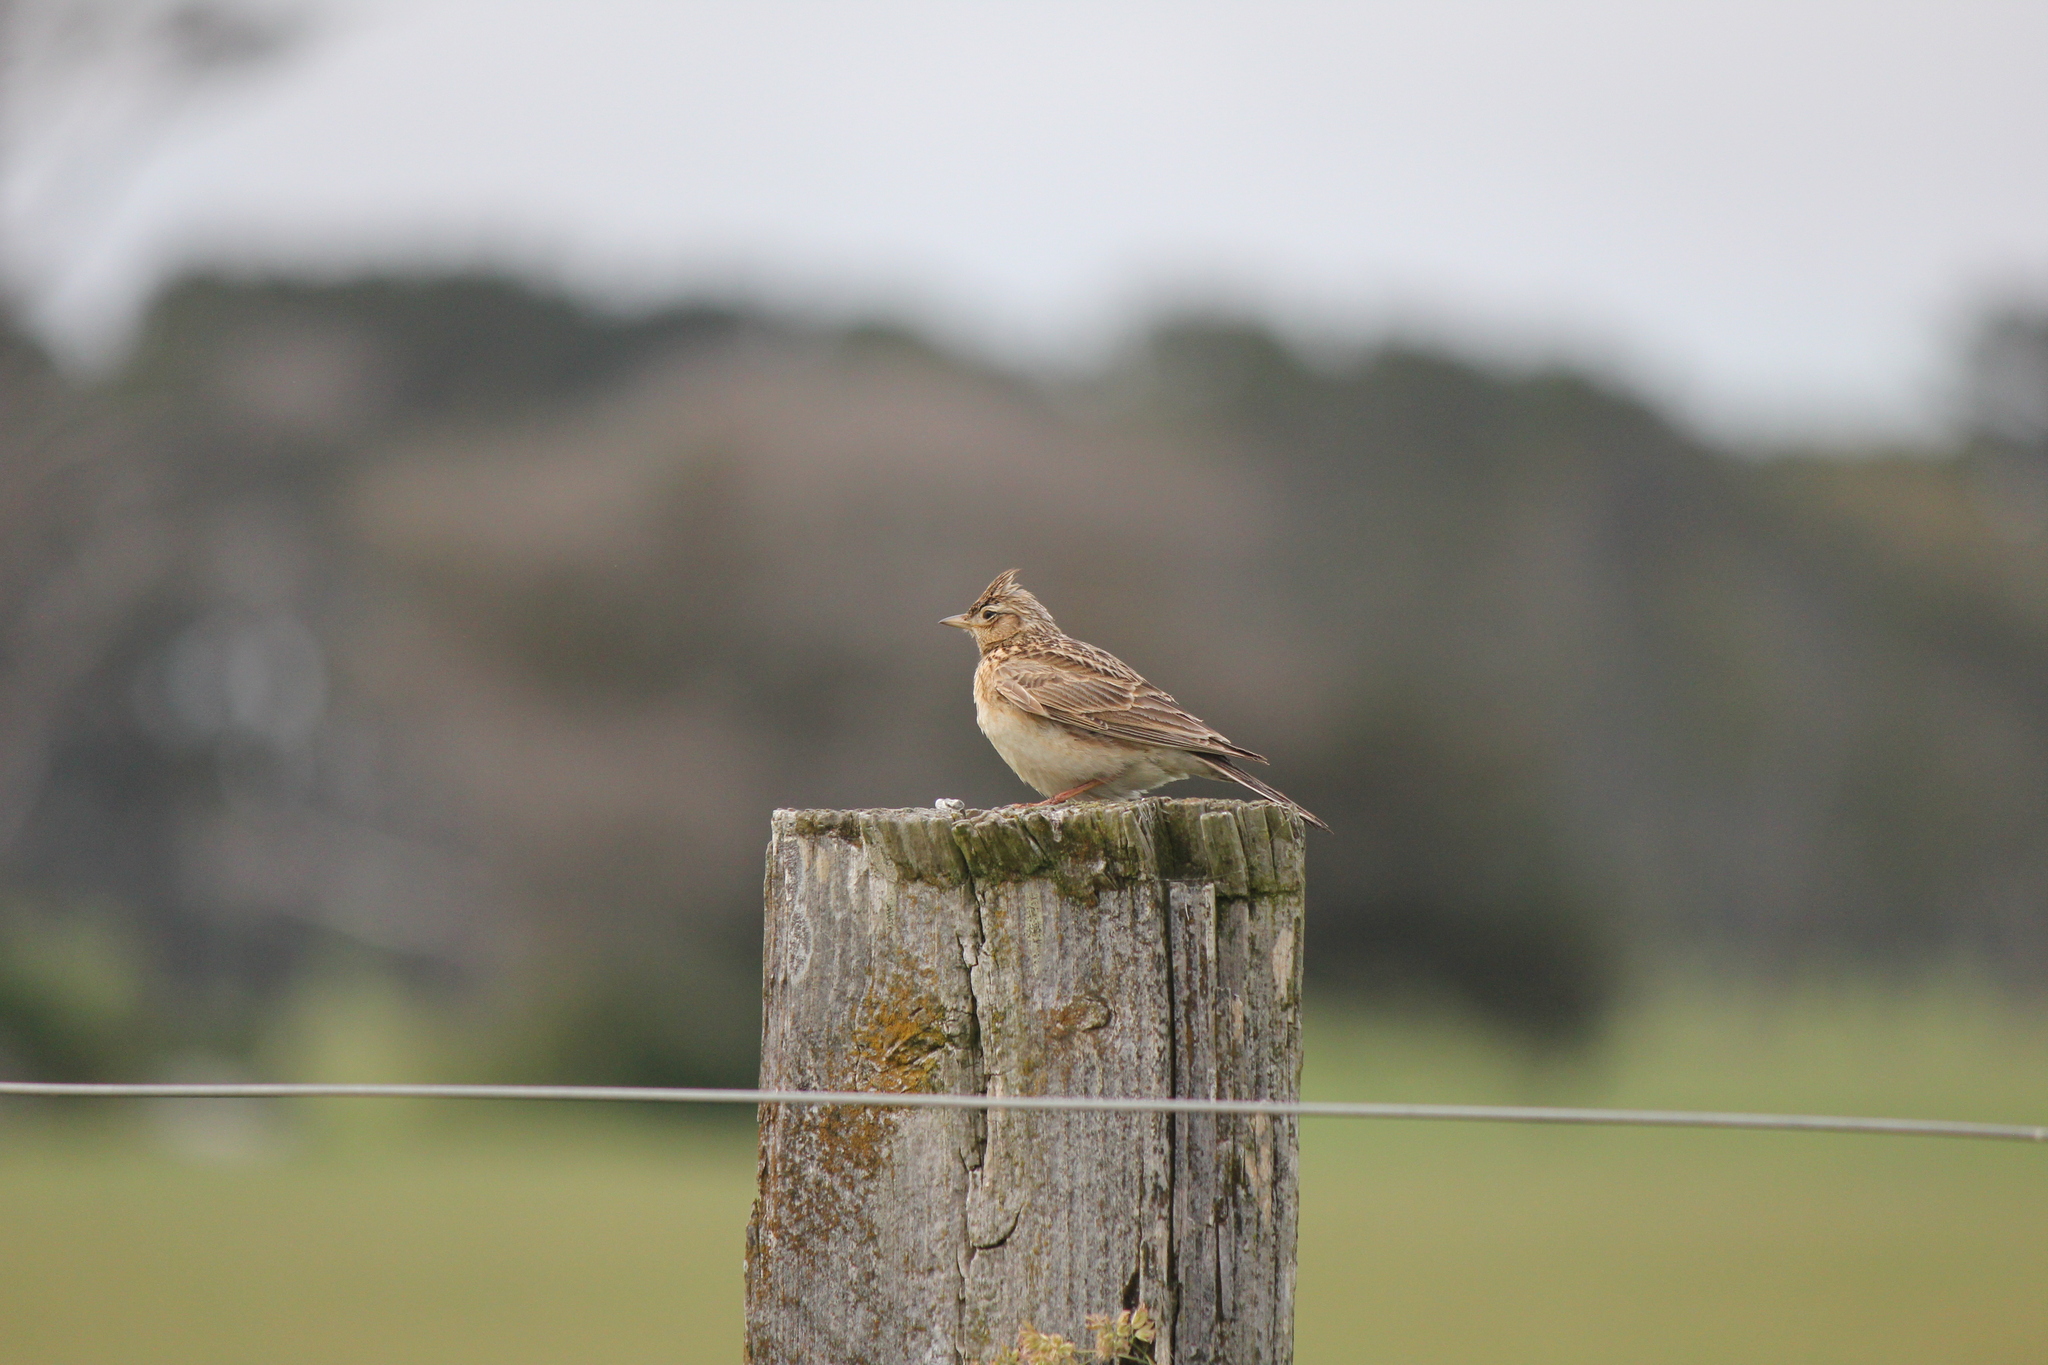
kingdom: Animalia
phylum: Chordata
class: Aves
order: Passeriformes
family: Alaudidae
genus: Alauda
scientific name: Alauda arvensis
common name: Eurasian skylark
